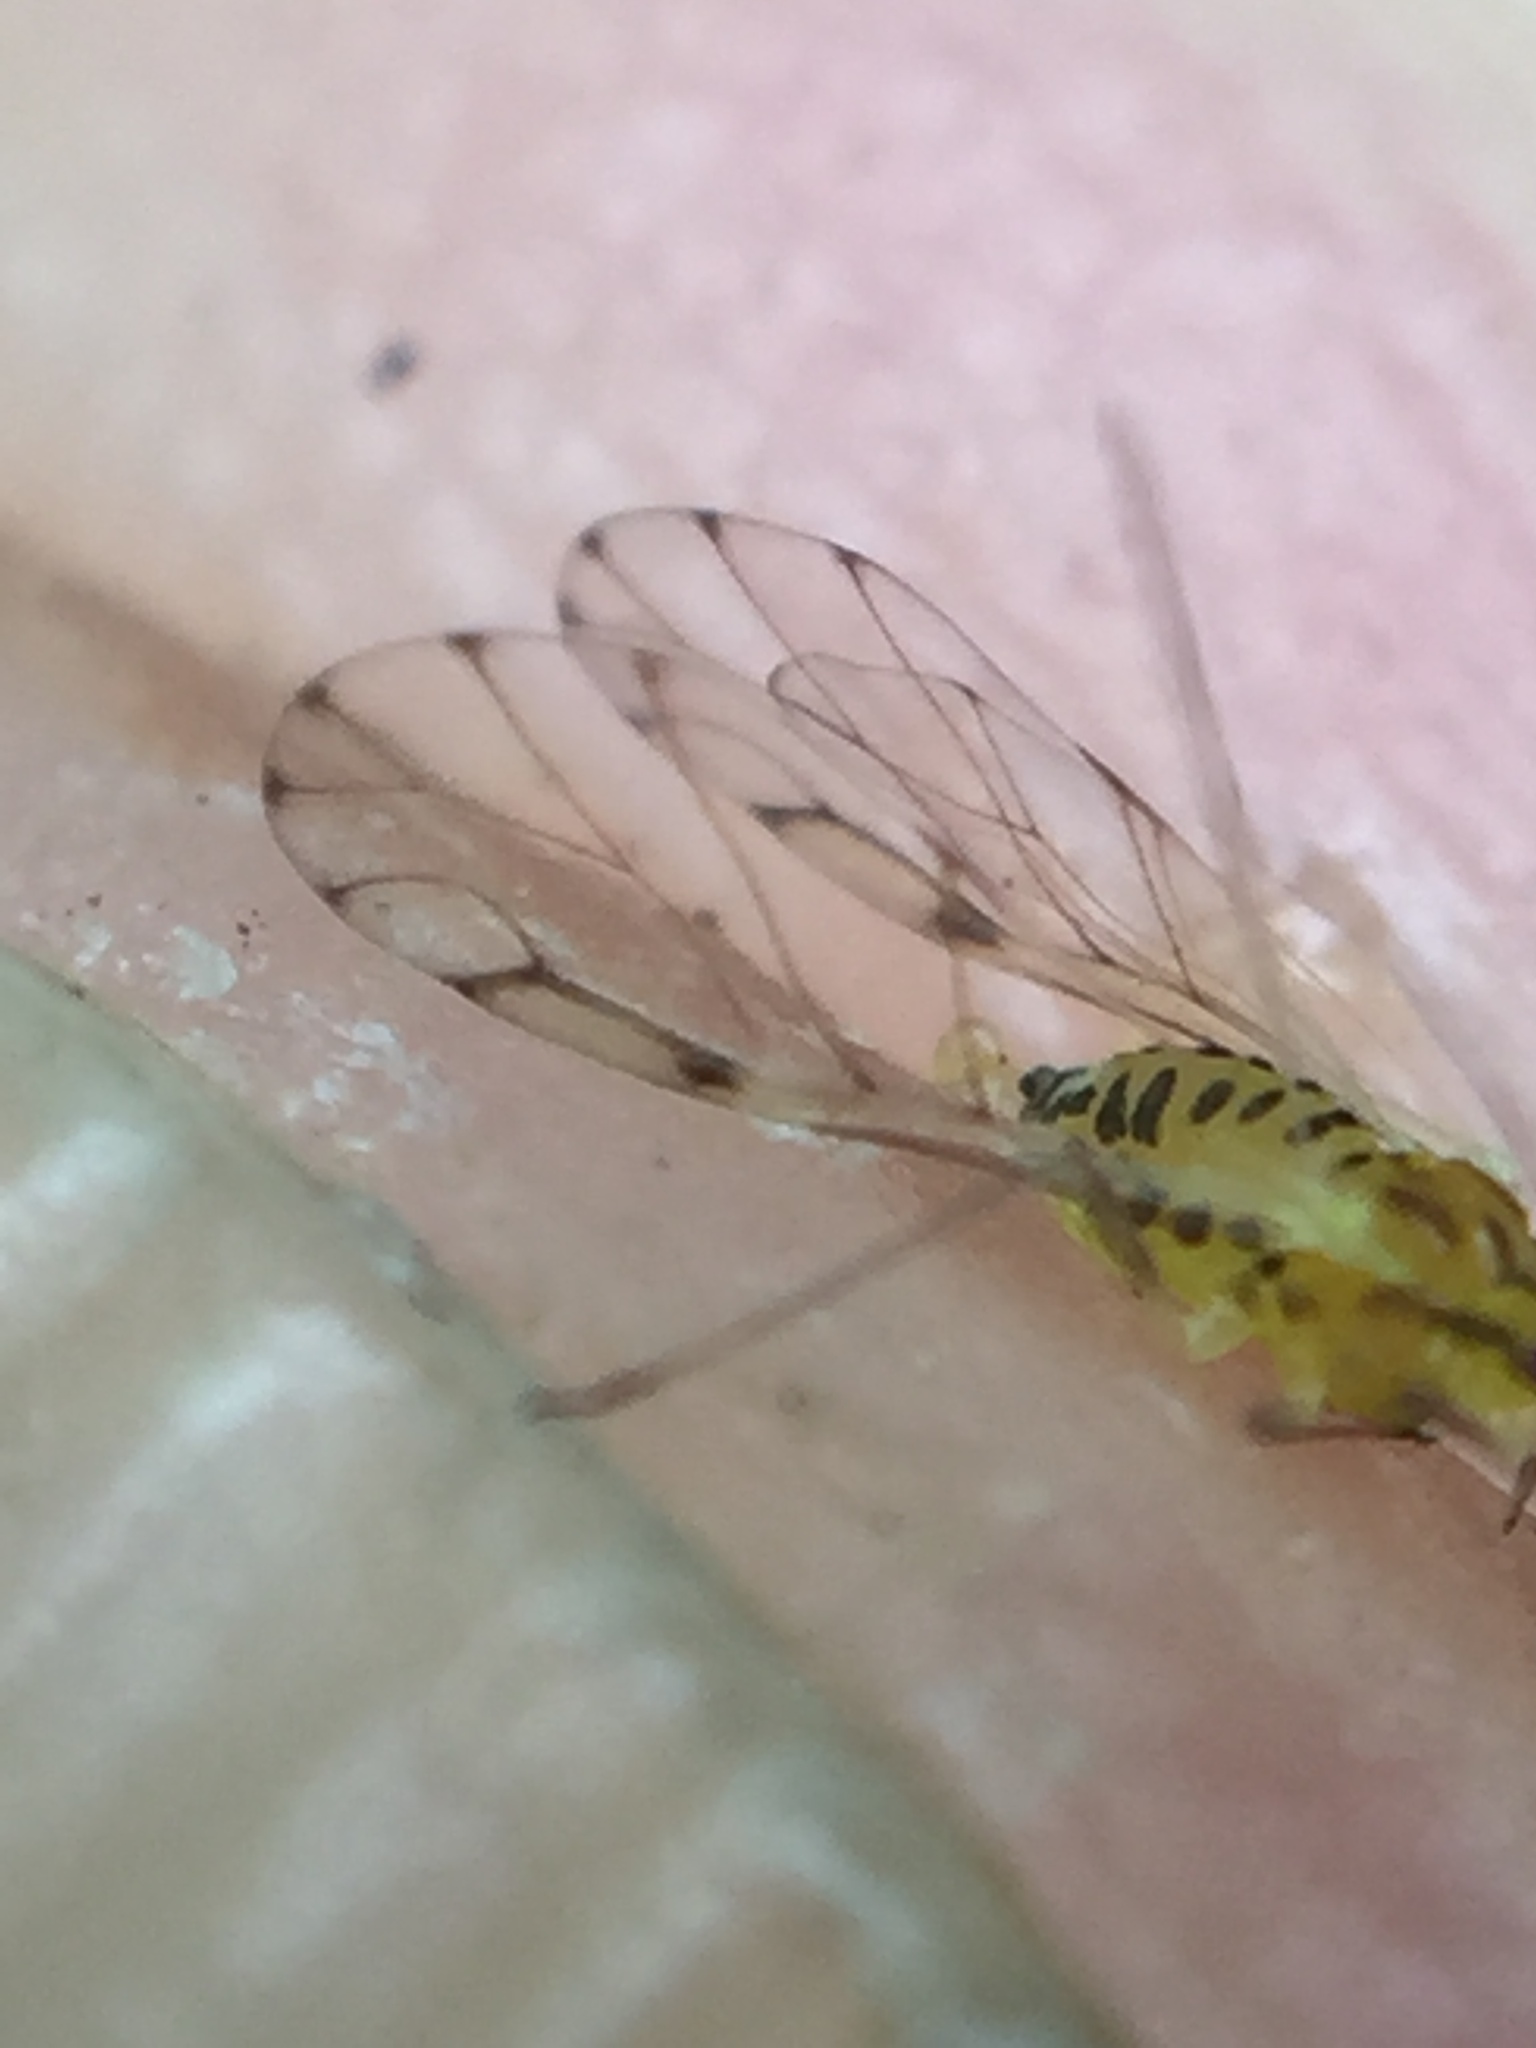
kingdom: Animalia
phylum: Arthropoda
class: Insecta
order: Hemiptera
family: Aphididae
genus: Takecallis
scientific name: Takecallis
